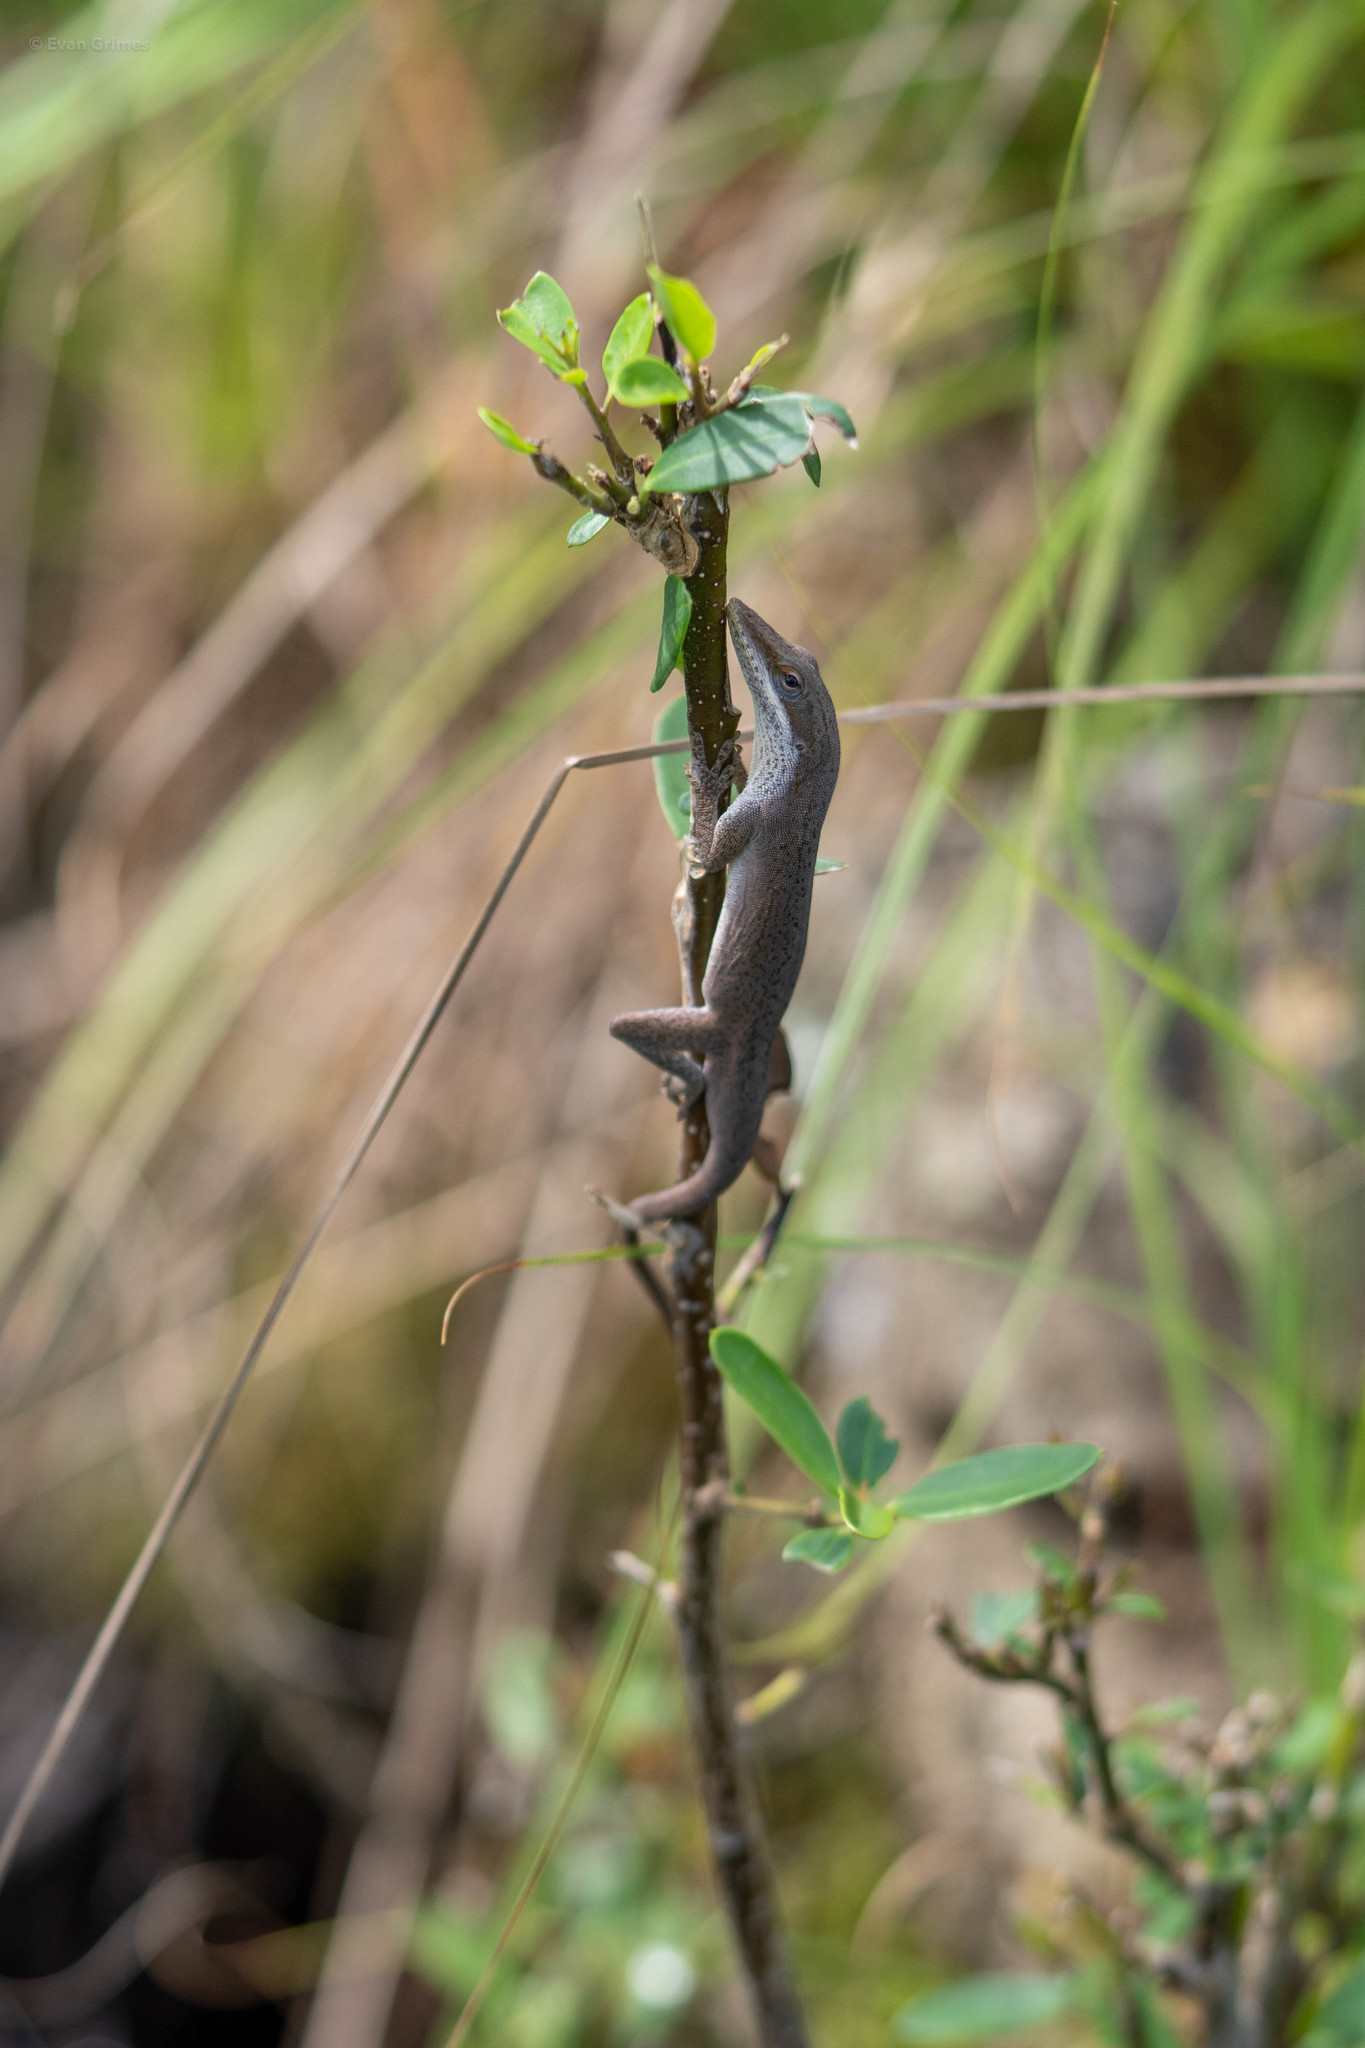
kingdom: Animalia
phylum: Chordata
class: Squamata
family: Dactyloidae
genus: Anolis
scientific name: Anolis carolinensis
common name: Green anole
